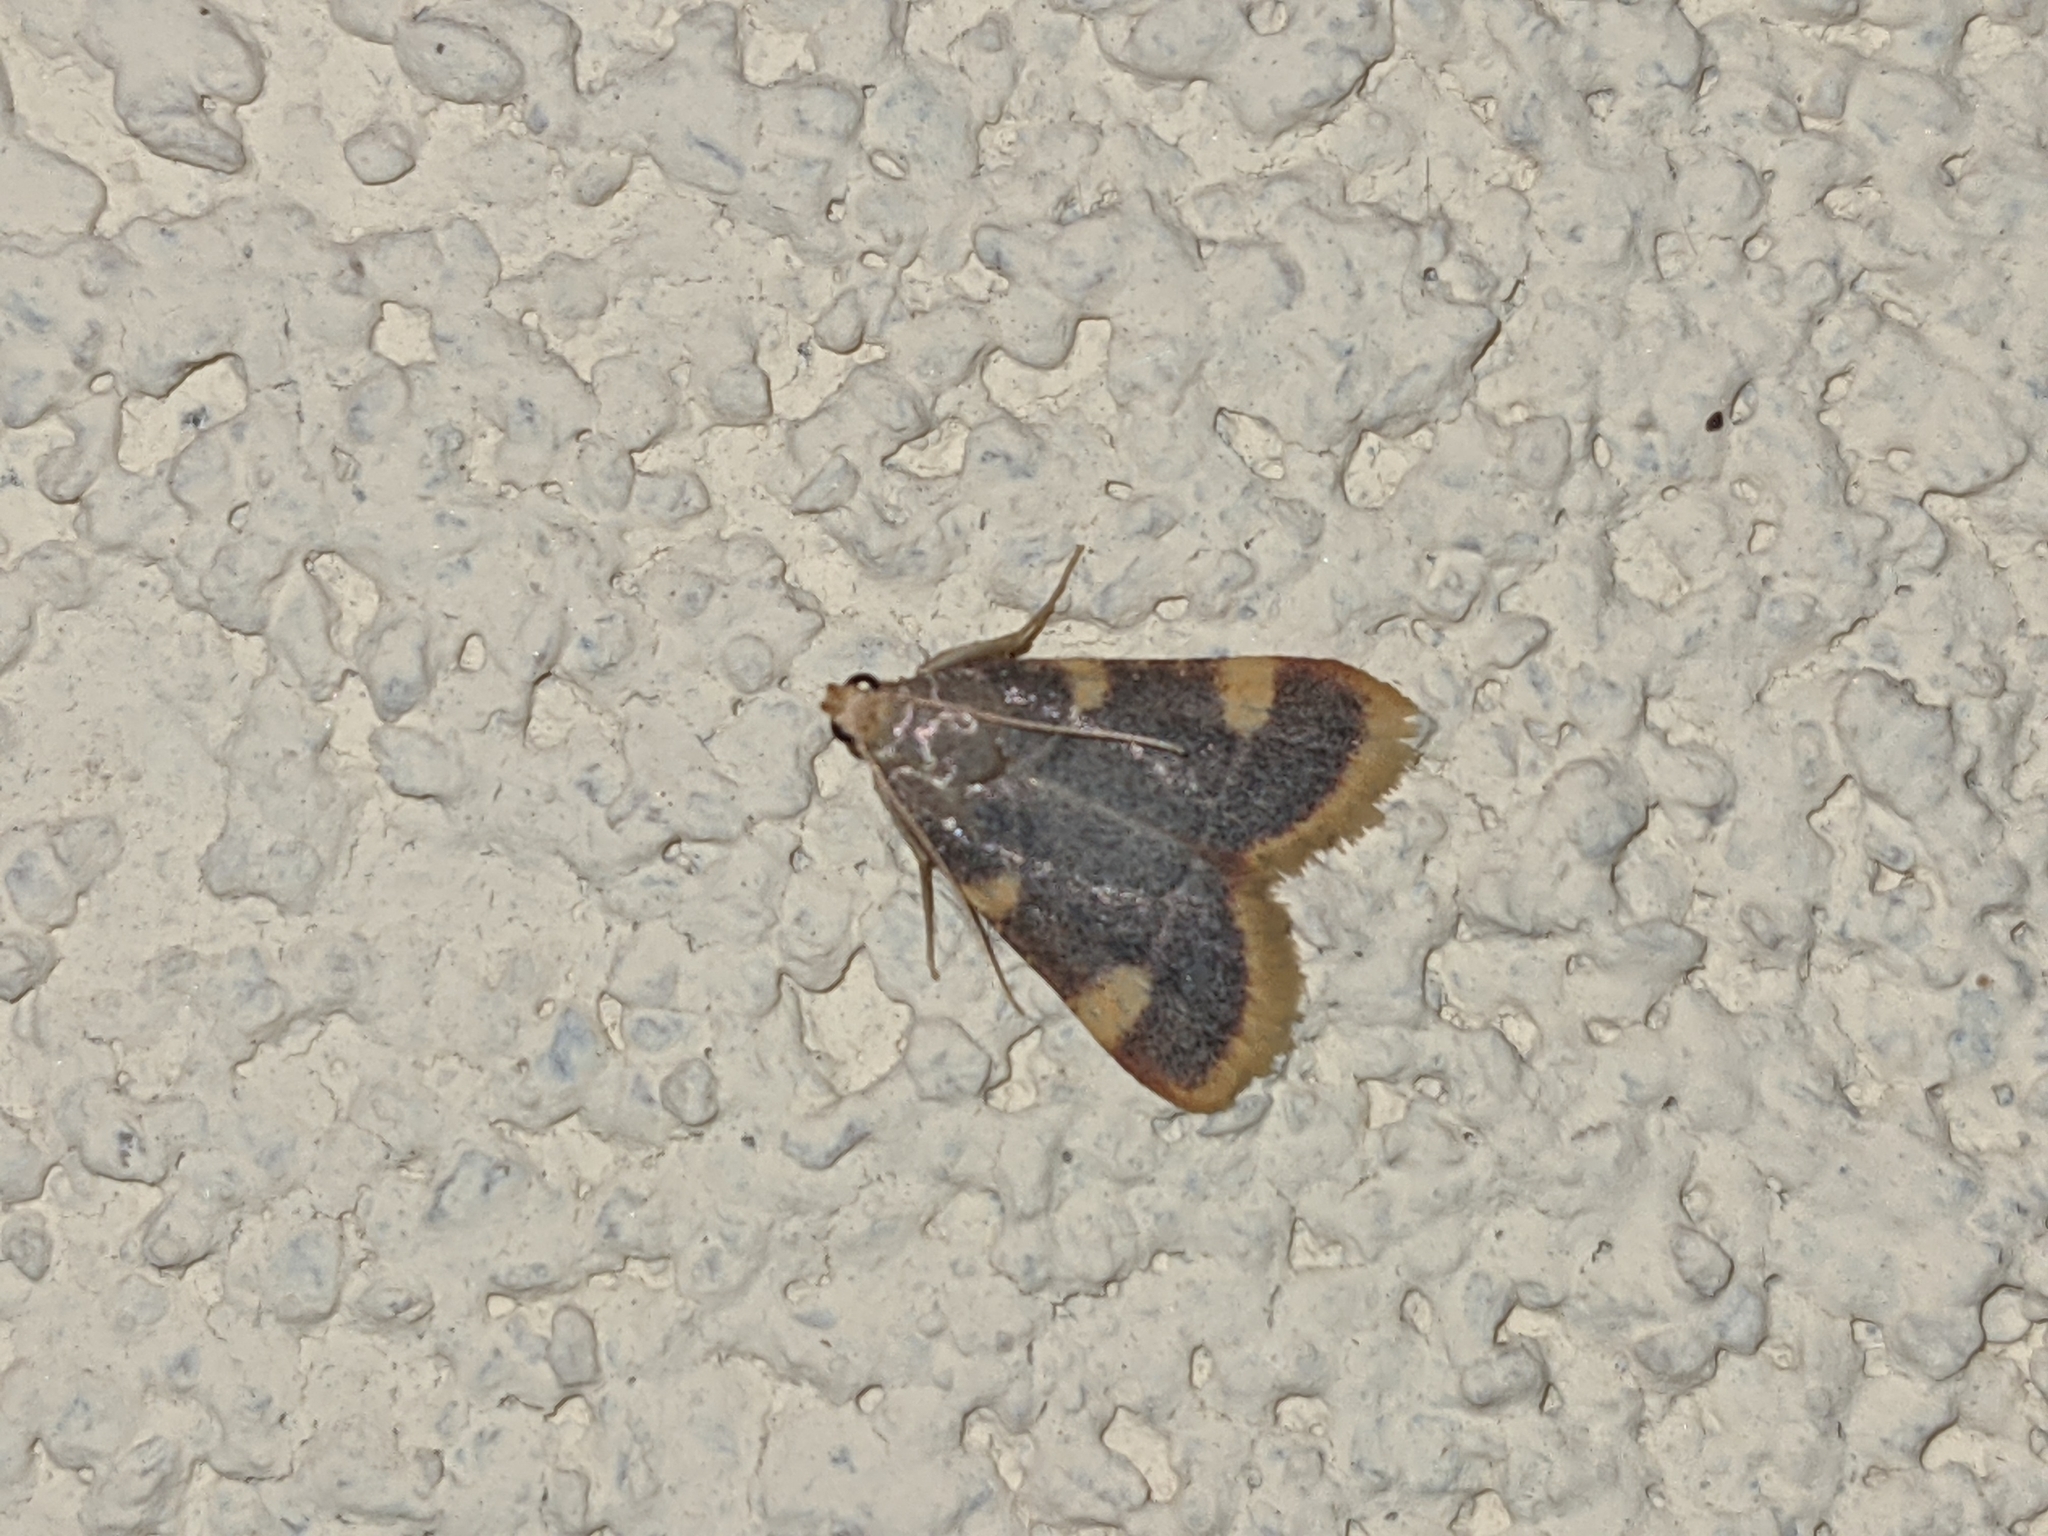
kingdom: Animalia
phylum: Arthropoda
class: Insecta
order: Lepidoptera
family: Pyralidae
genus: Hypsopygia
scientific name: Hypsopygia costalis
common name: Gold triangle
